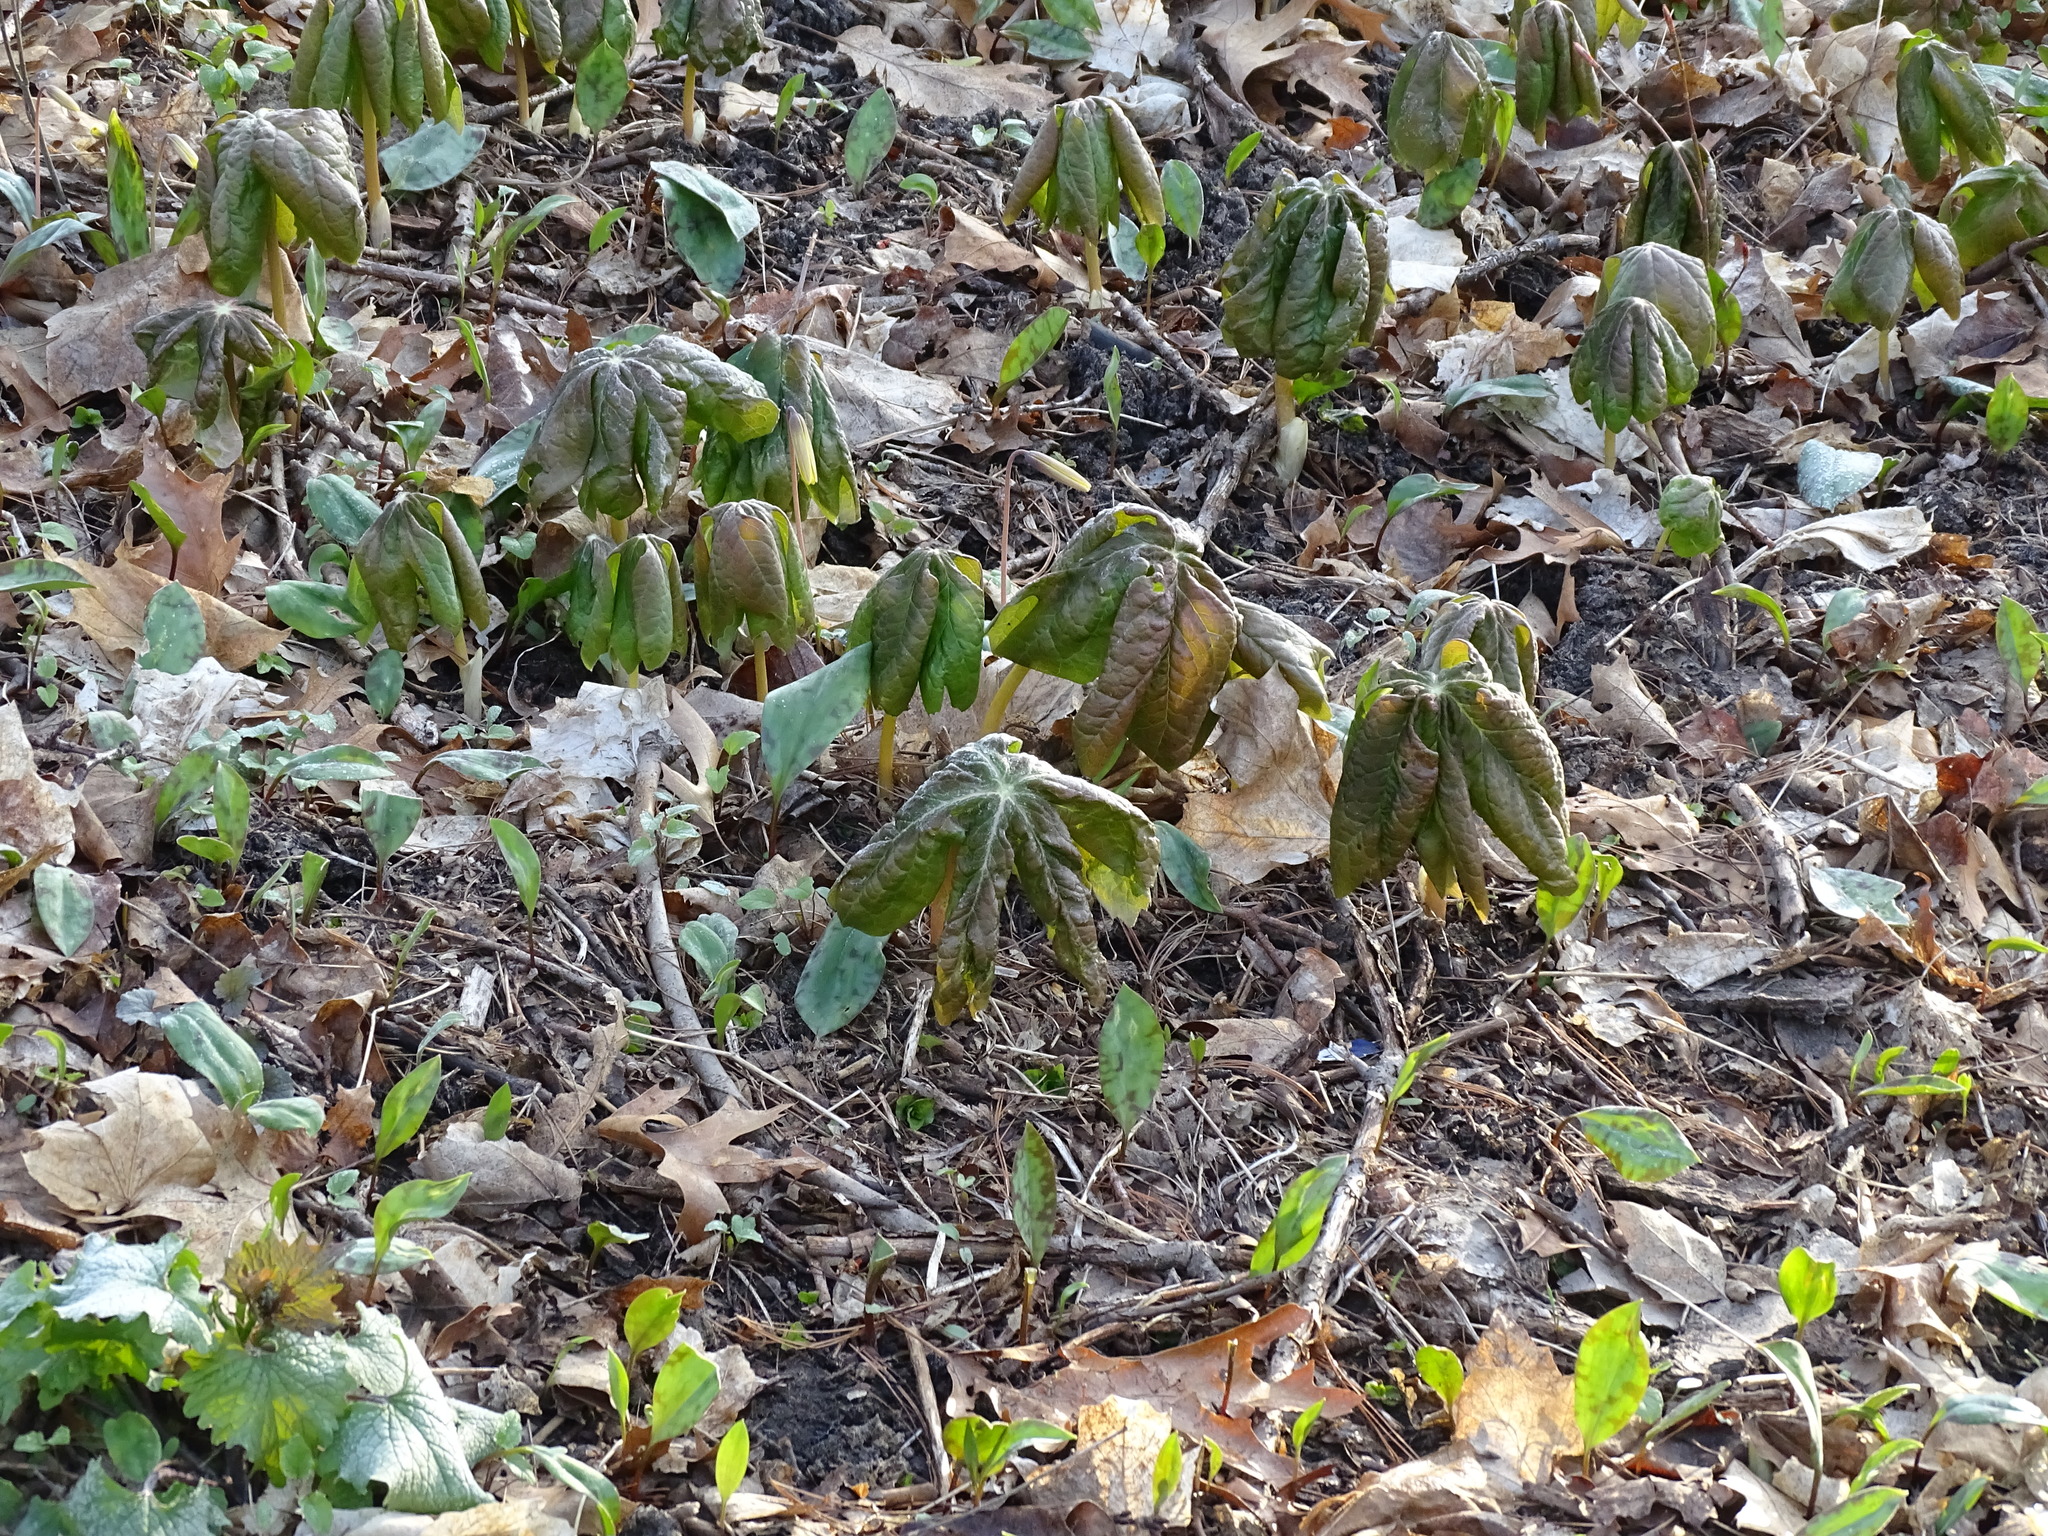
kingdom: Plantae
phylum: Tracheophyta
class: Magnoliopsida
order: Ranunculales
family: Berberidaceae
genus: Podophyllum
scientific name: Podophyllum peltatum
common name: Wild mandrake
